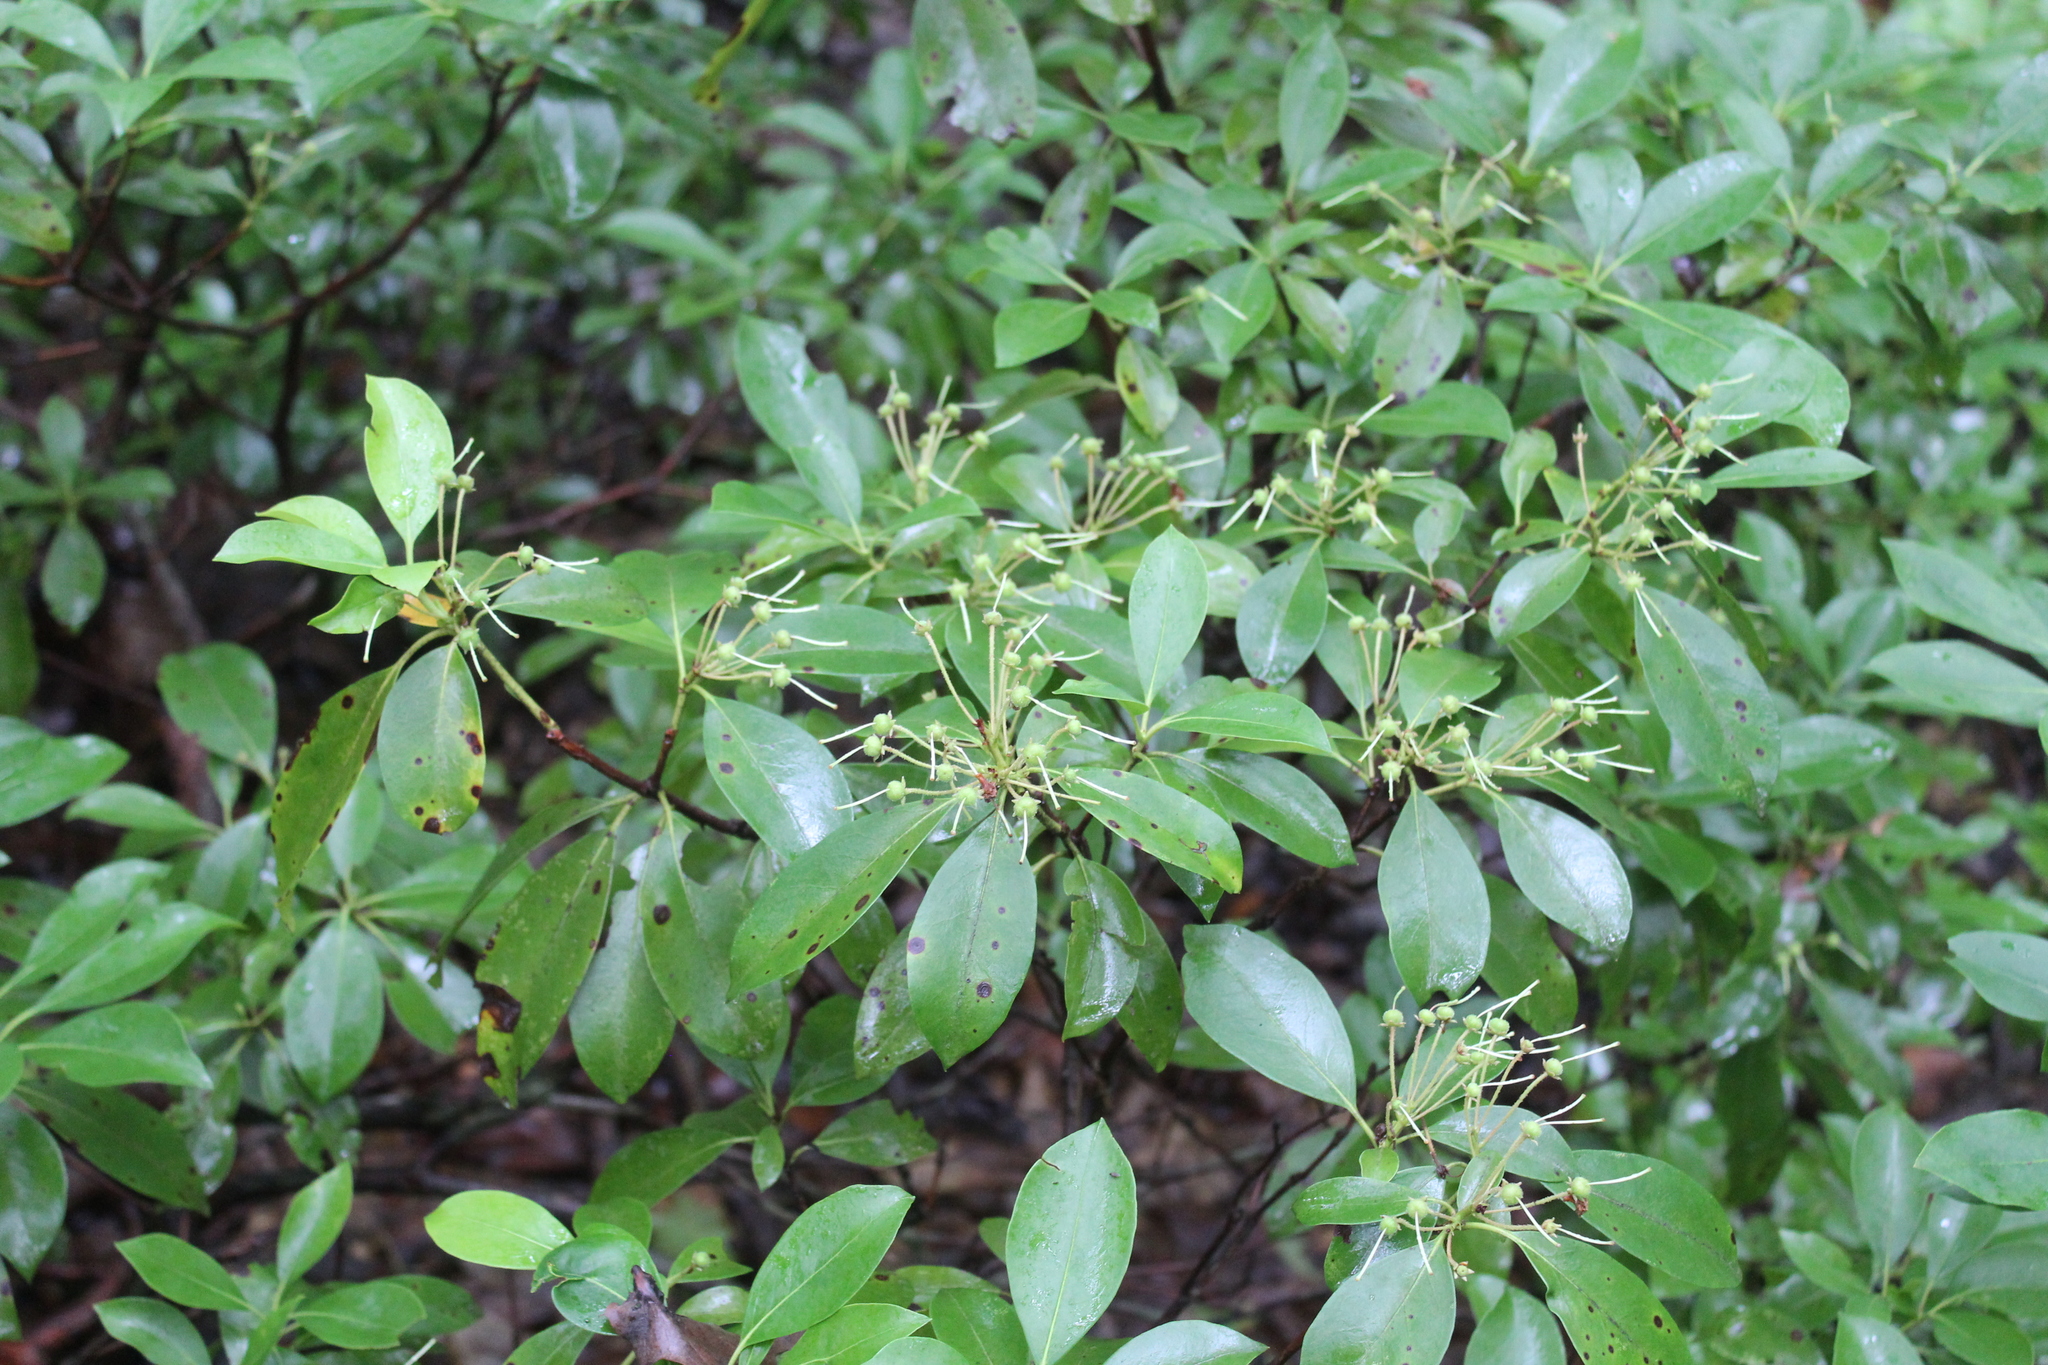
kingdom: Plantae
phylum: Tracheophyta
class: Magnoliopsida
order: Ericales
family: Ericaceae
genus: Kalmia
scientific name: Kalmia latifolia
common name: Mountain-laurel
